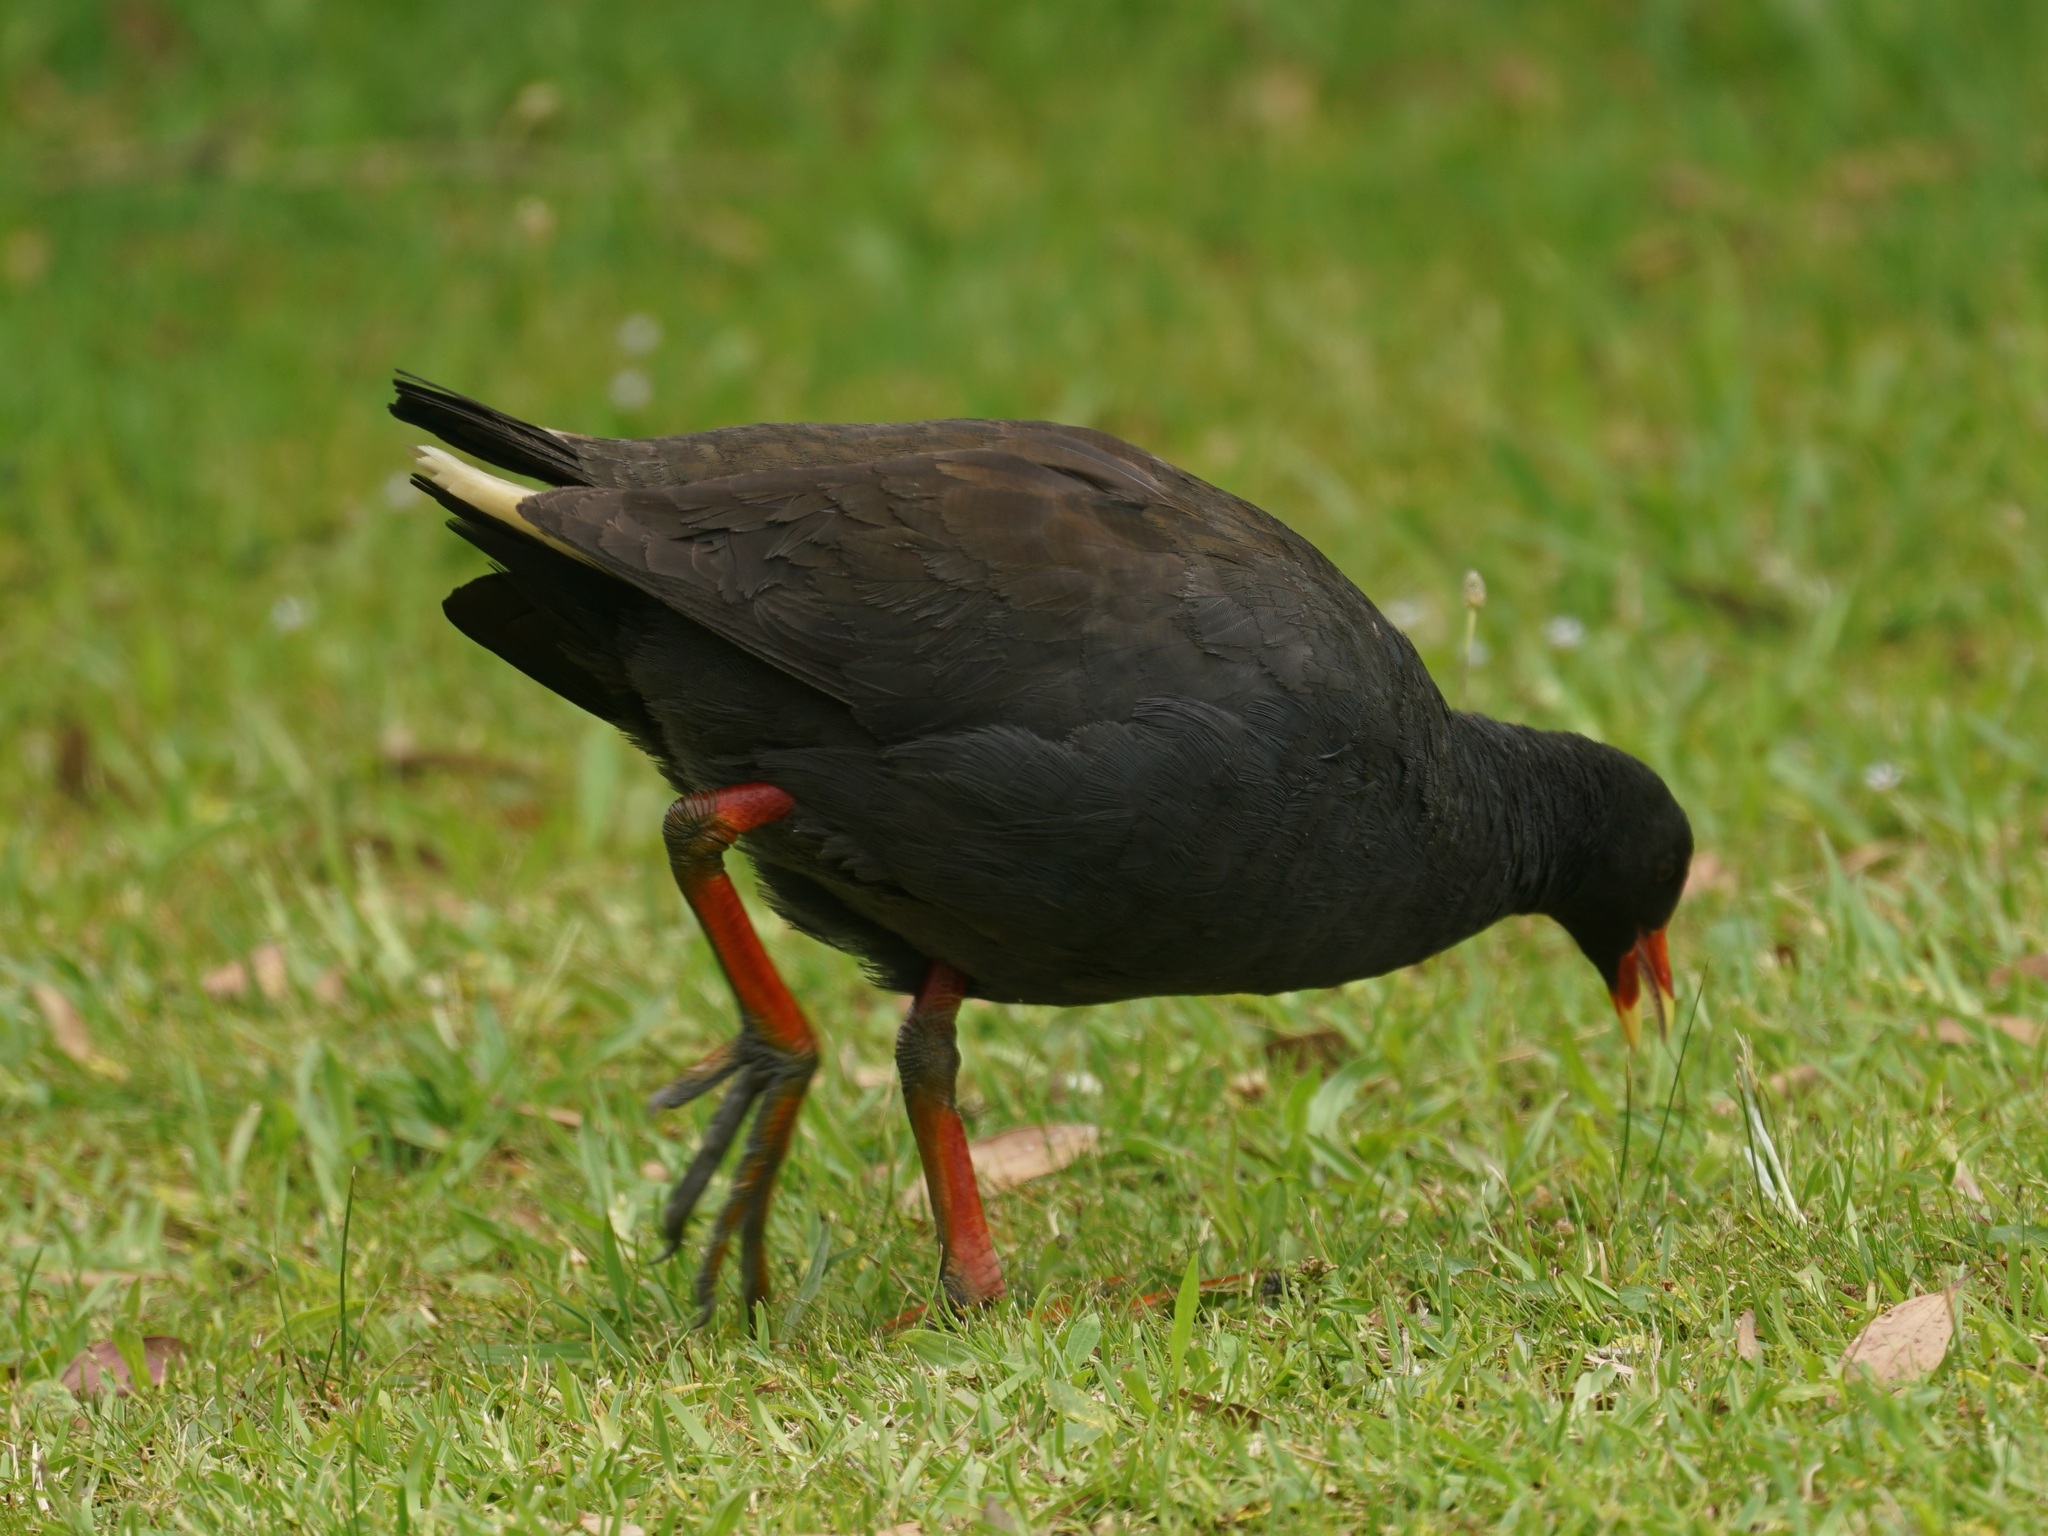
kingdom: Animalia
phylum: Chordata
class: Aves
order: Gruiformes
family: Rallidae
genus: Gallinula
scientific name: Gallinula tenebrosa
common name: Dusky moorhen
